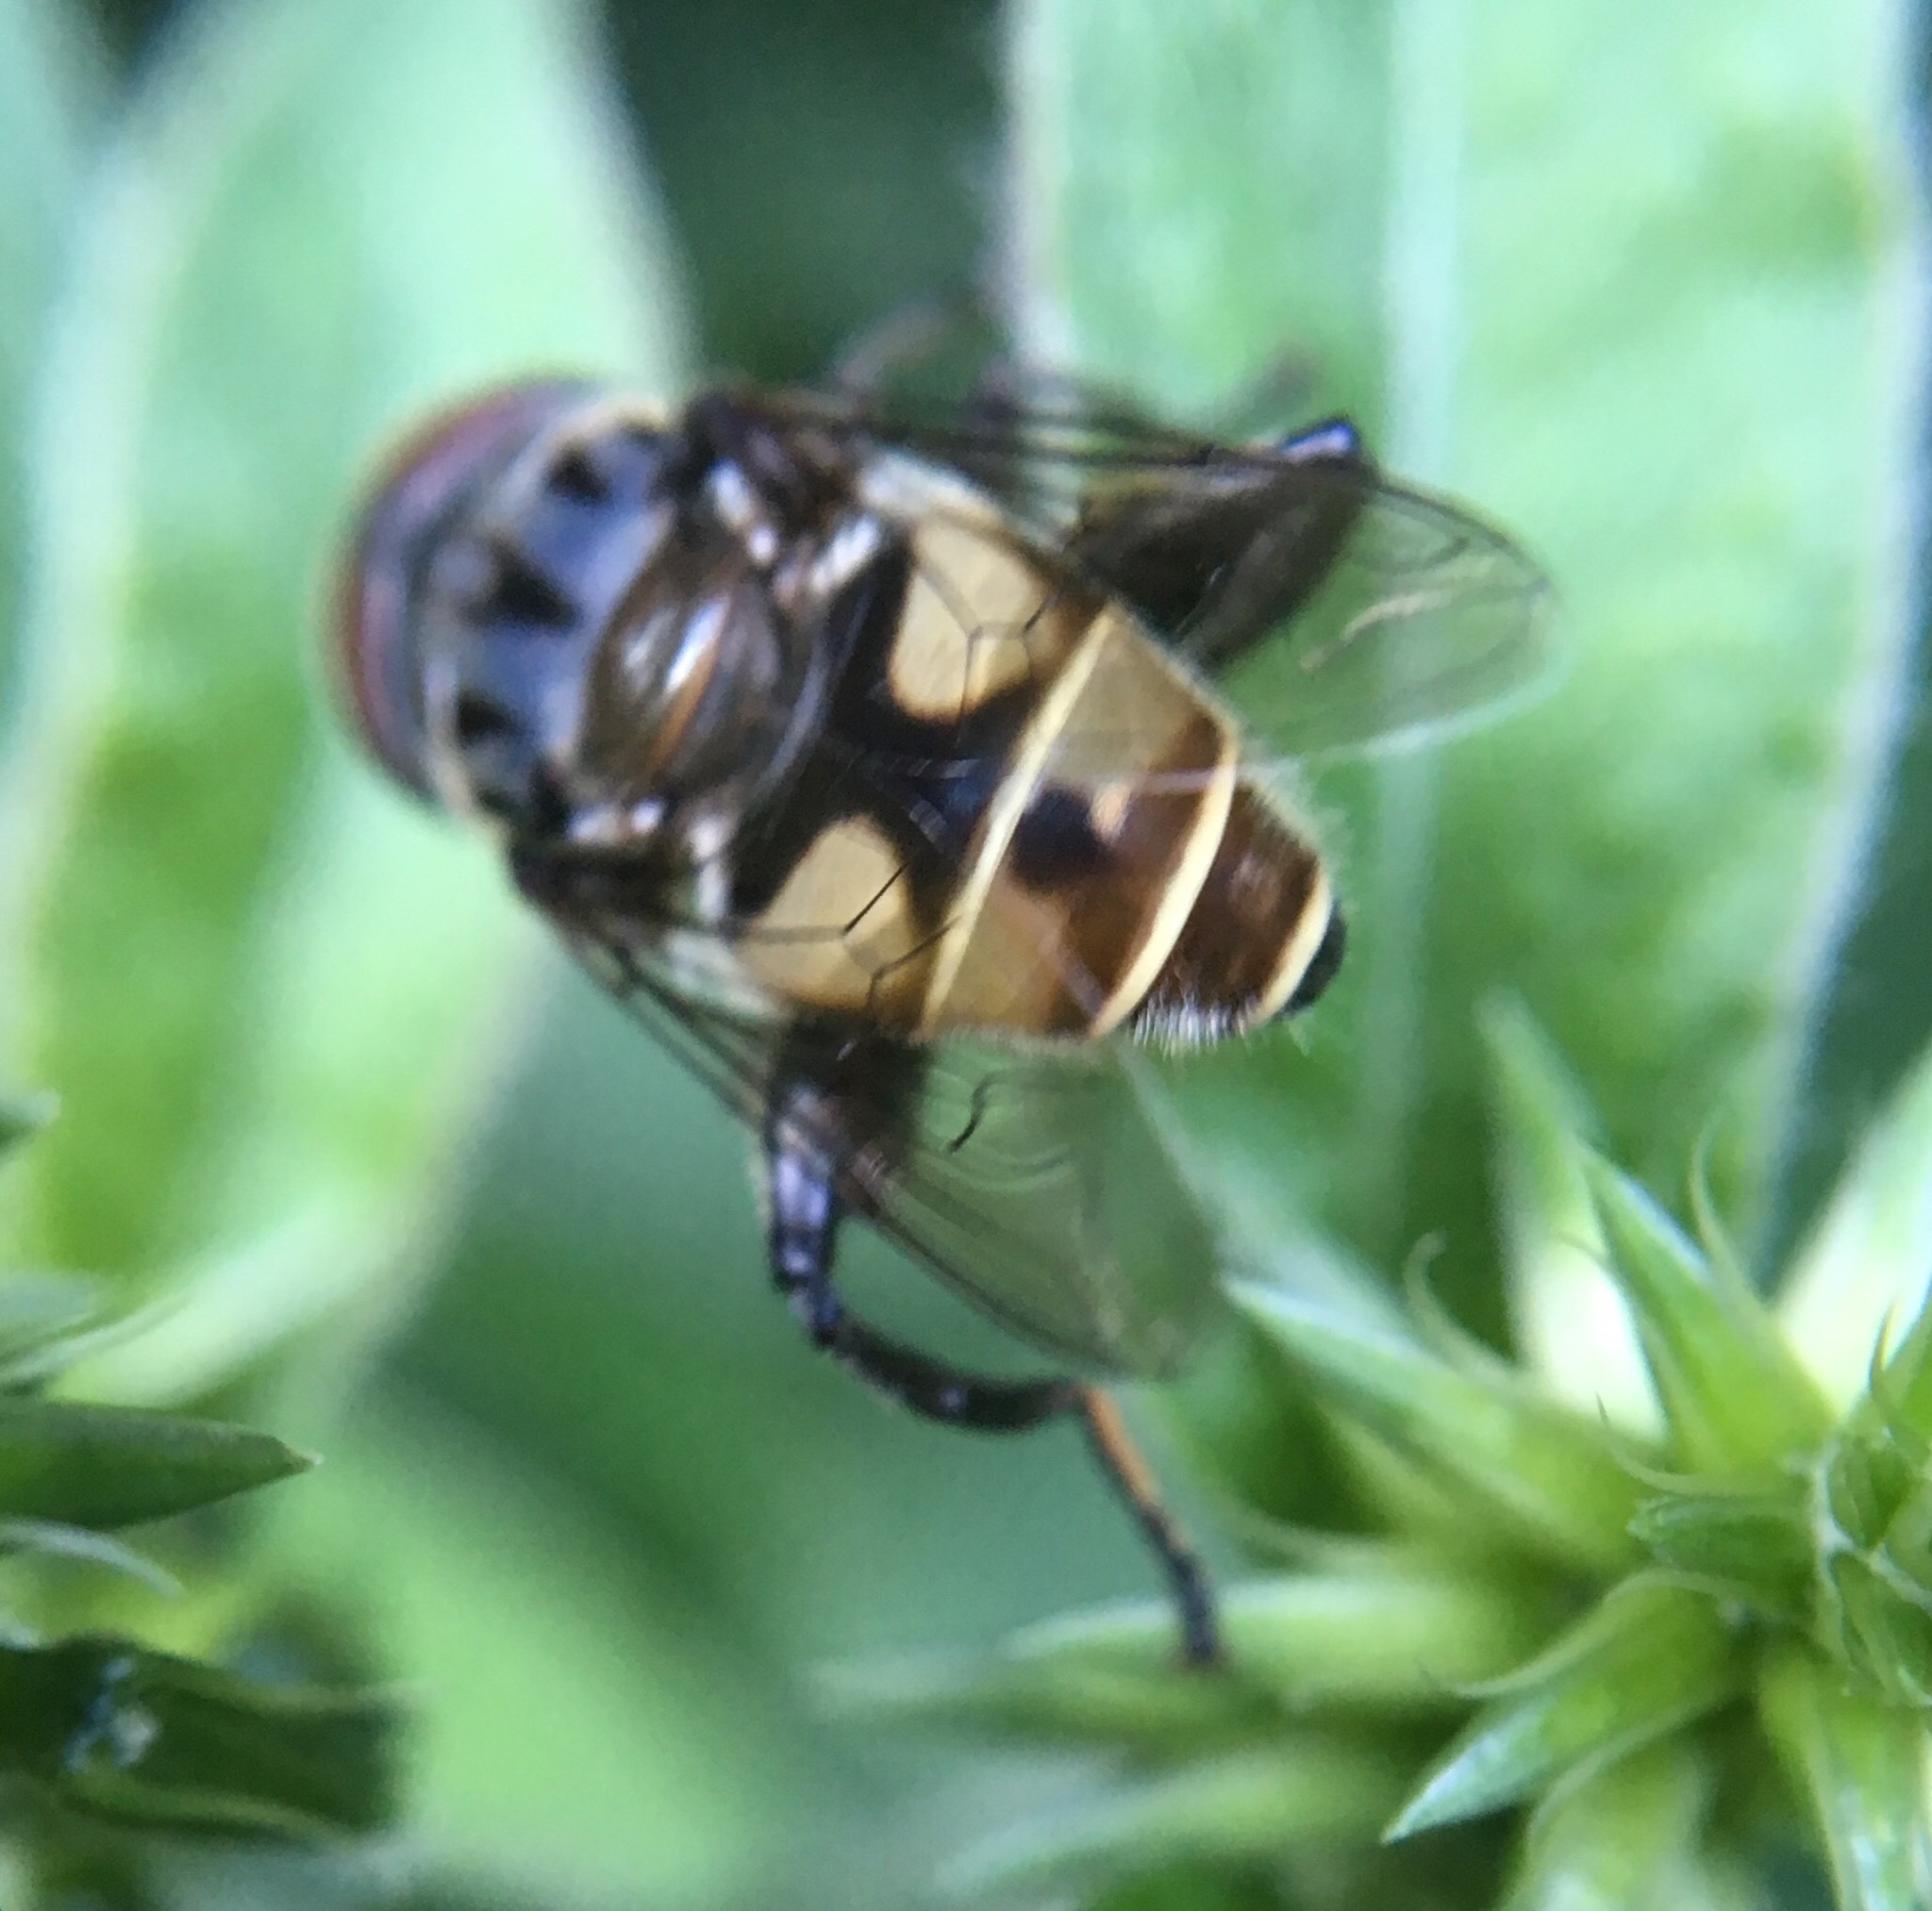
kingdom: Animalia
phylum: Arthropoda
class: Insecta
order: Diptera
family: Syrphidae
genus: Palpada
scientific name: Palpada furcata
